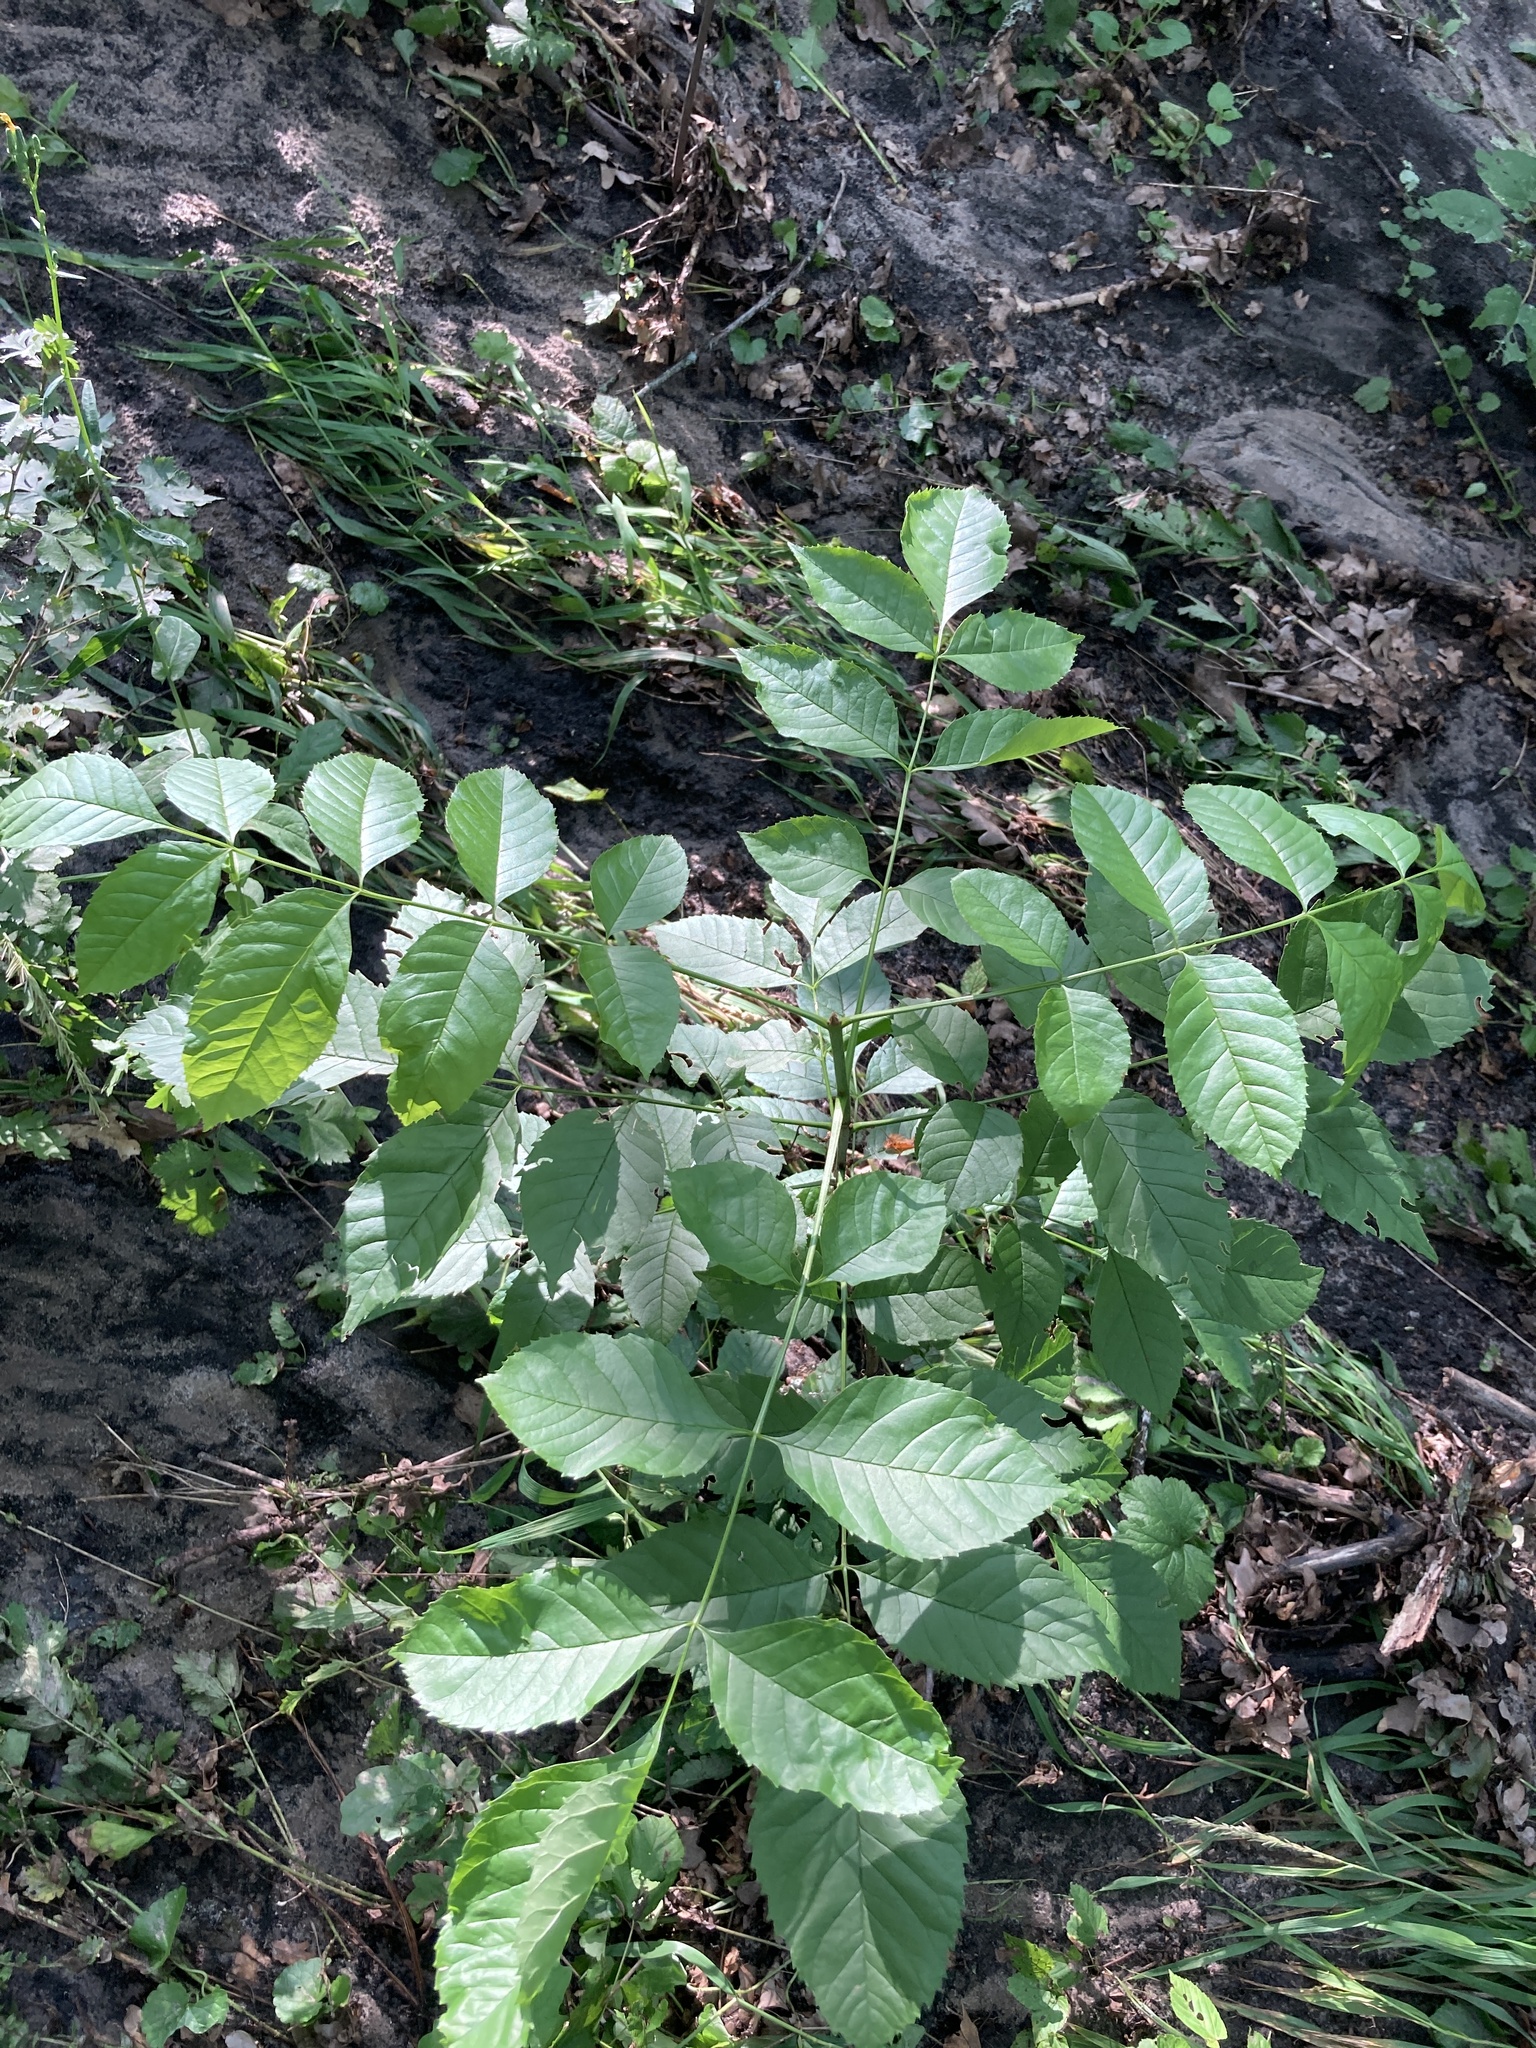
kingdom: Plantae
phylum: Tracheophyta
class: Magnoliopsida
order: Lamiales
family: Oleaceae
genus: Fraxinus
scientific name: Fraxinus excelsior
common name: European ash
